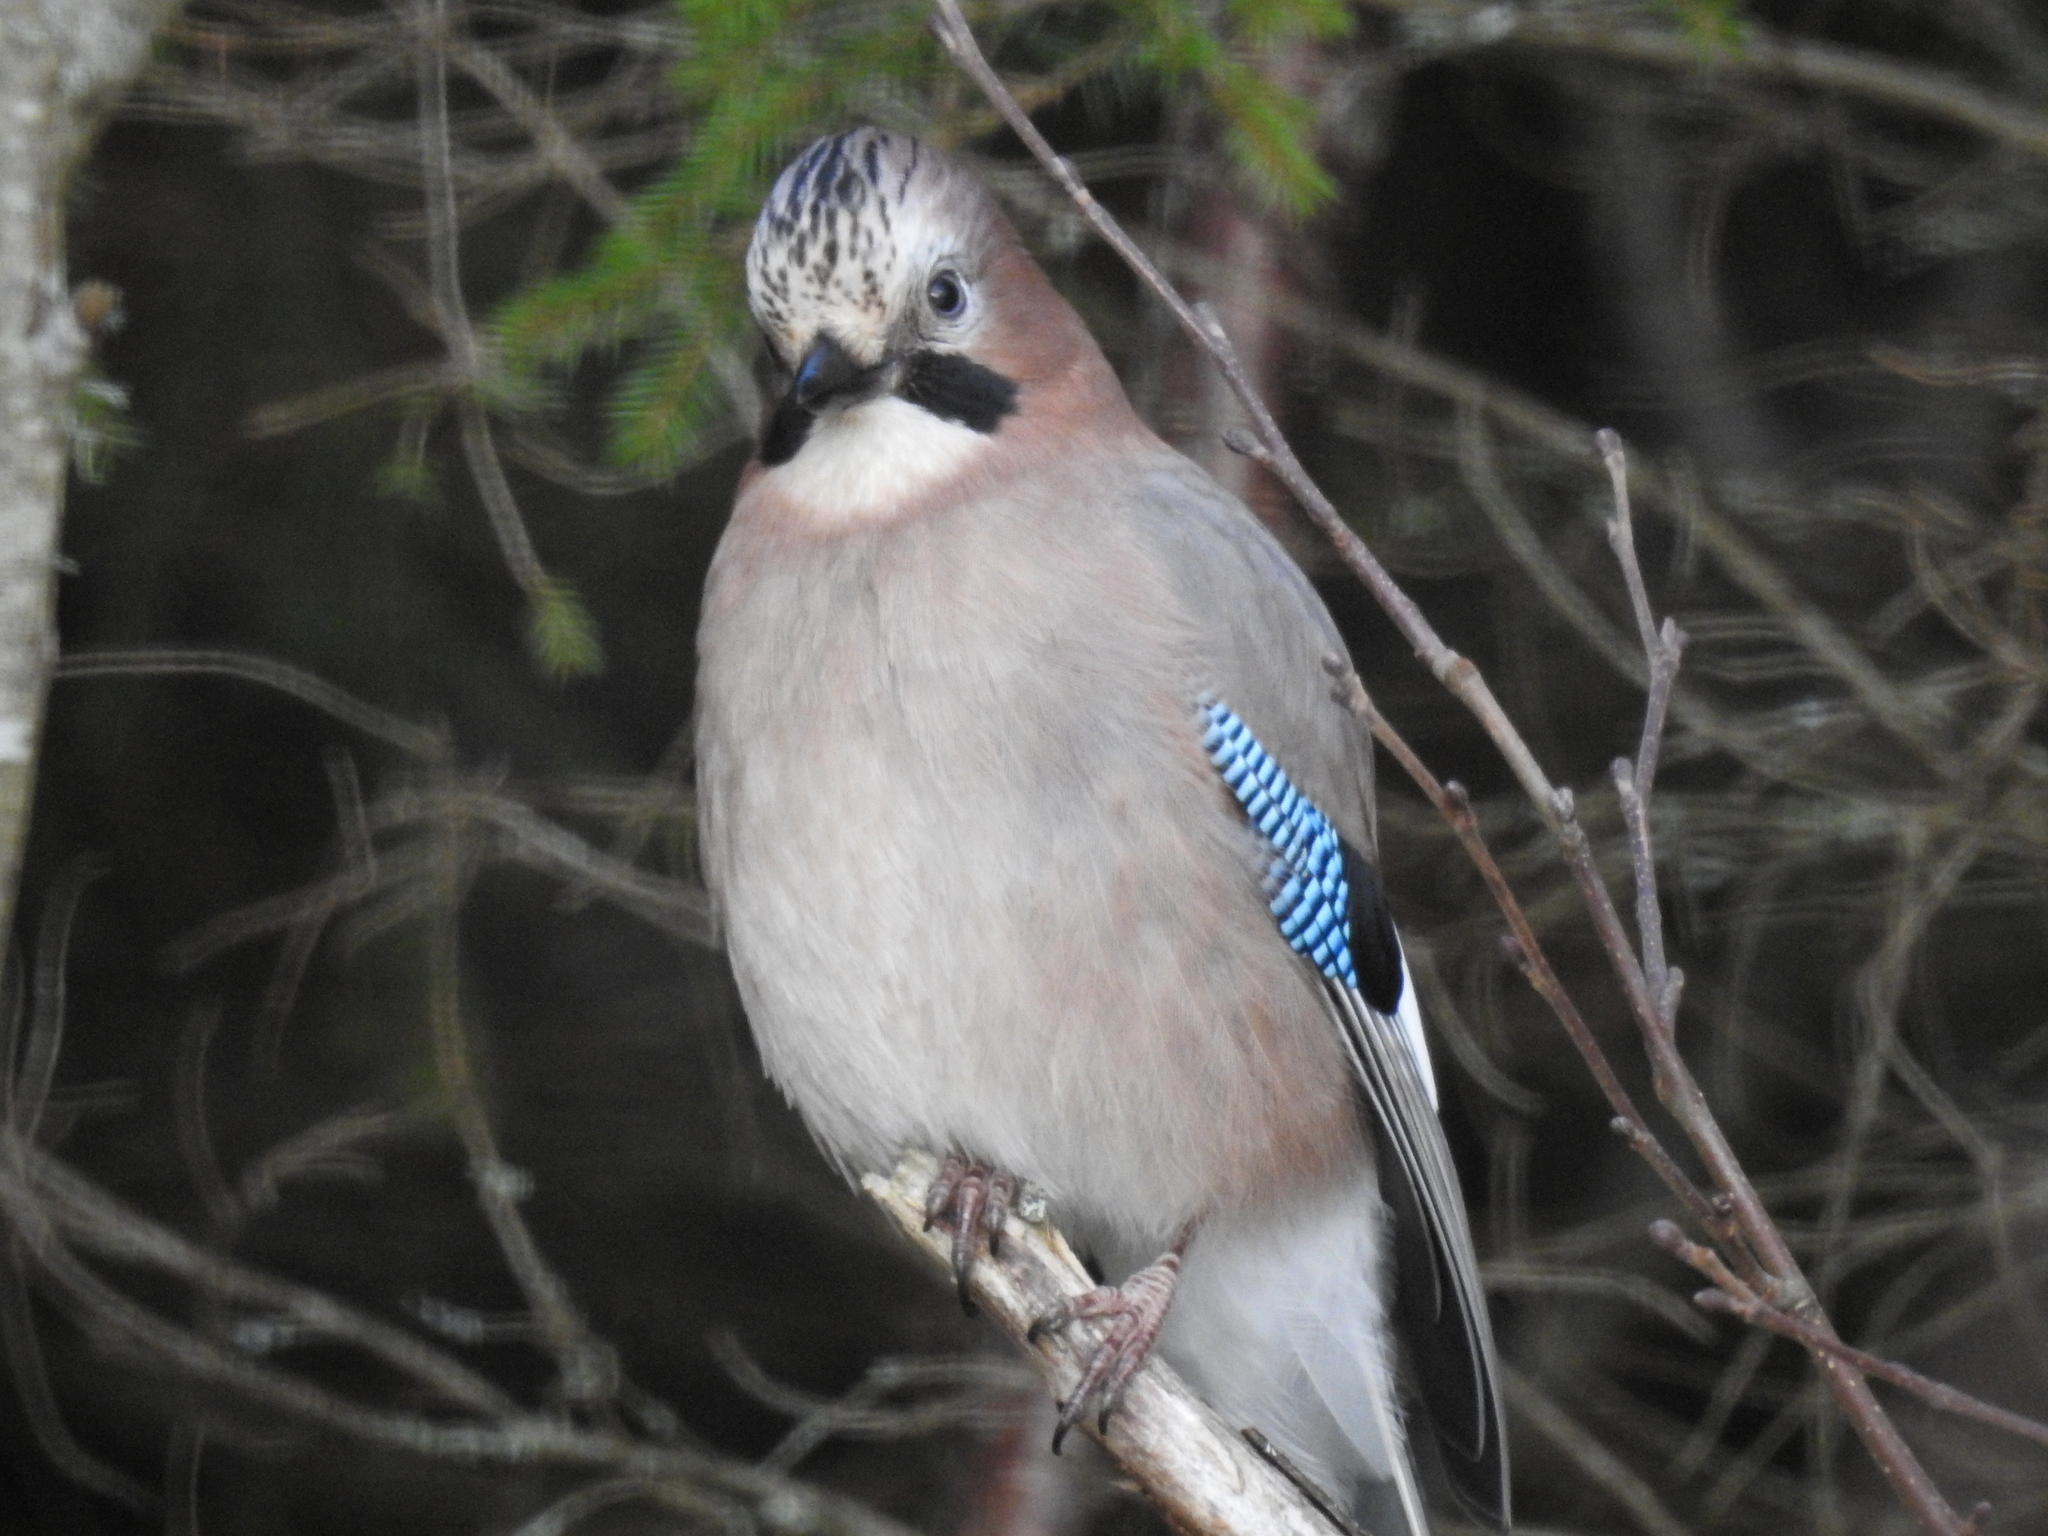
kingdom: Animalia
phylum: Chordata
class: Aves
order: Passeriformes
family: Corvidae
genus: Garrulus
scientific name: Garrulus glandarius
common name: Eurasian jay
